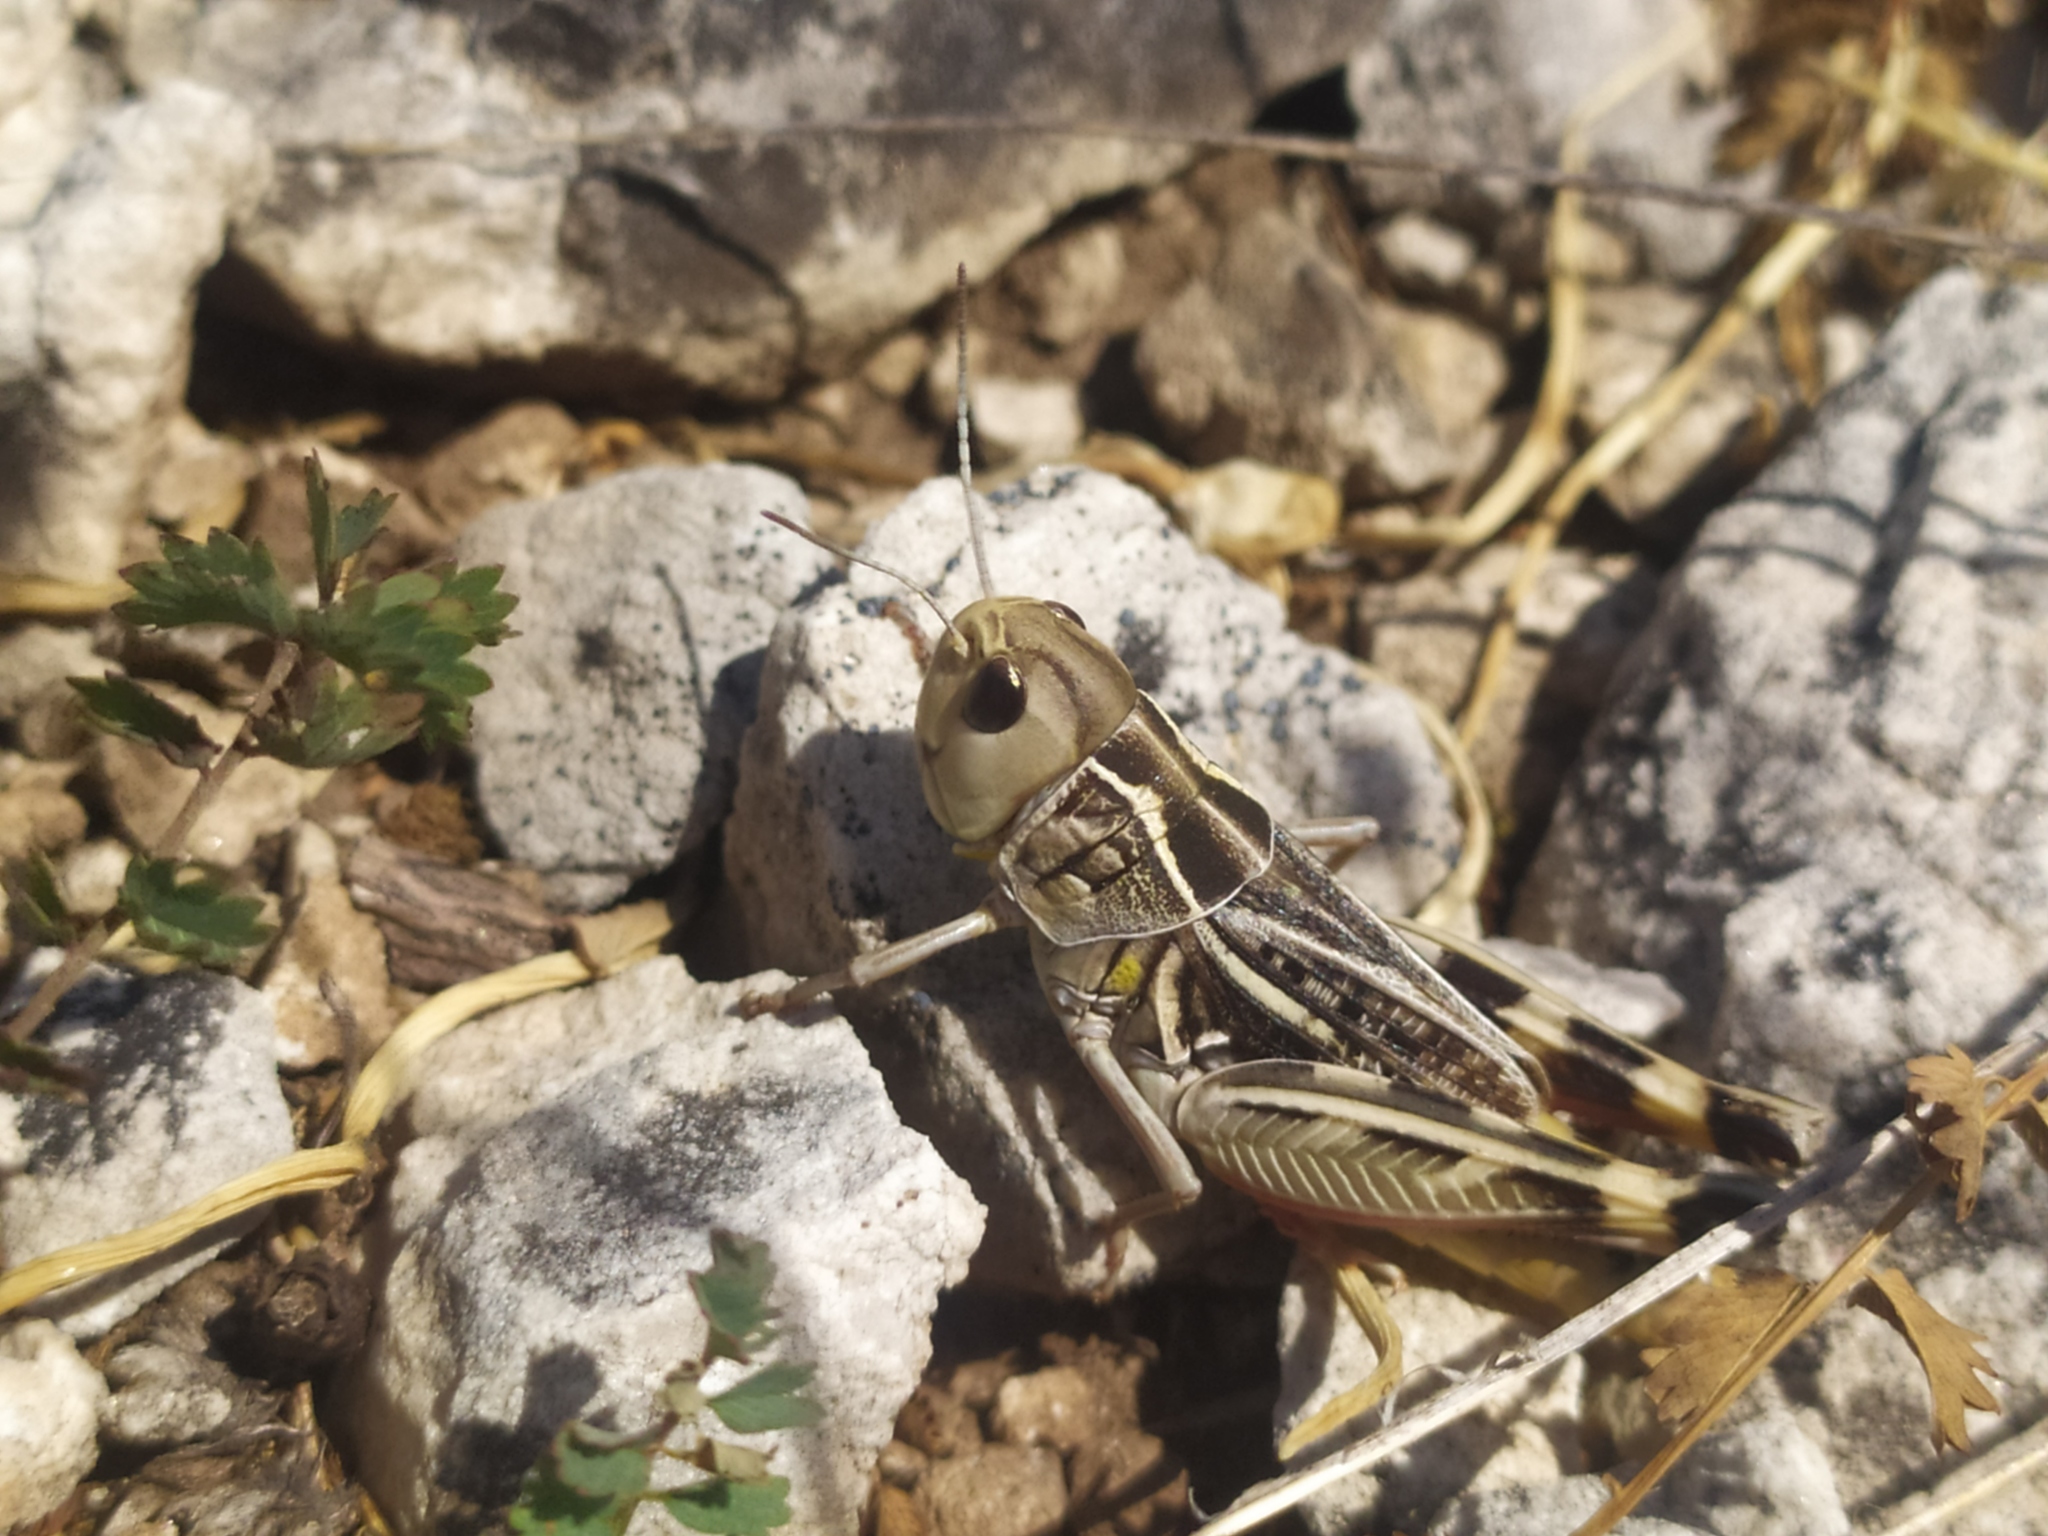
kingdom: Animalia
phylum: Arthropoda
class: Insecta
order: Orthoptera
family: Acrididae
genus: Arcyptera
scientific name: Arcyptera brevipennis
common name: Western banded grasshopper
